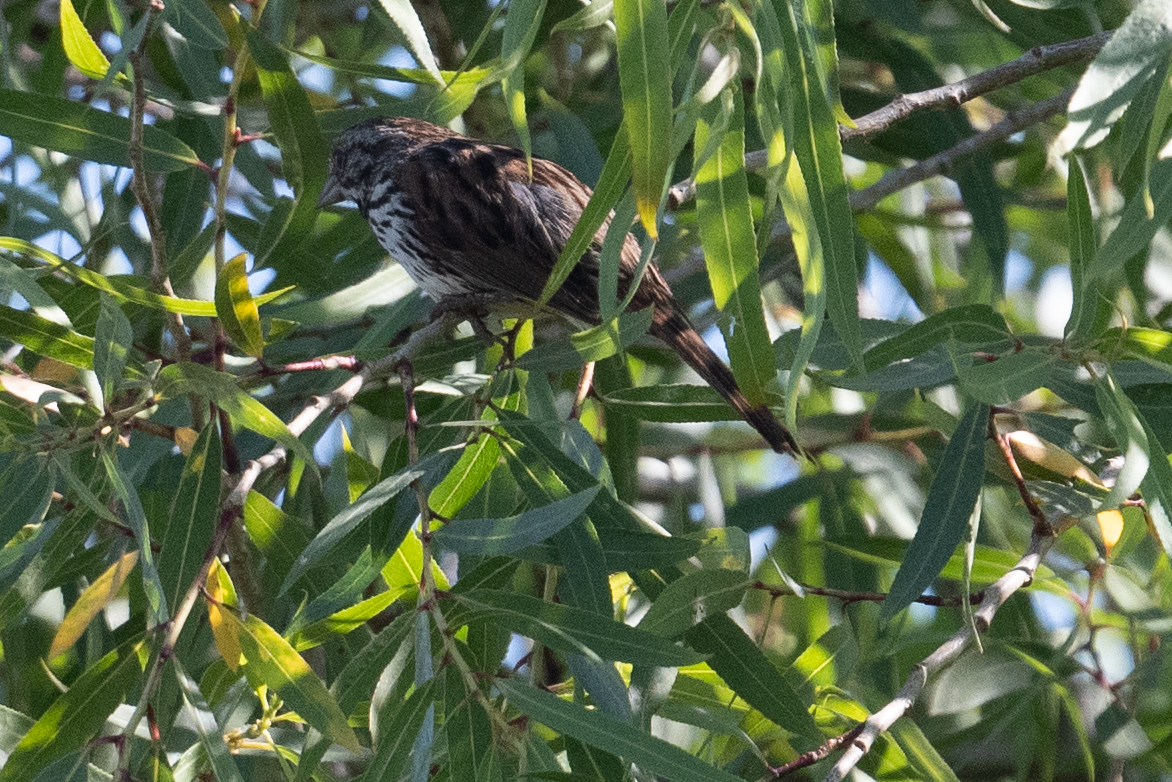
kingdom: Animalia
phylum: Chordata
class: Aves
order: Passeriformes
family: Passerellidae
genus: Melospiza
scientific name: Melospiza melodia
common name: Song sparrow
